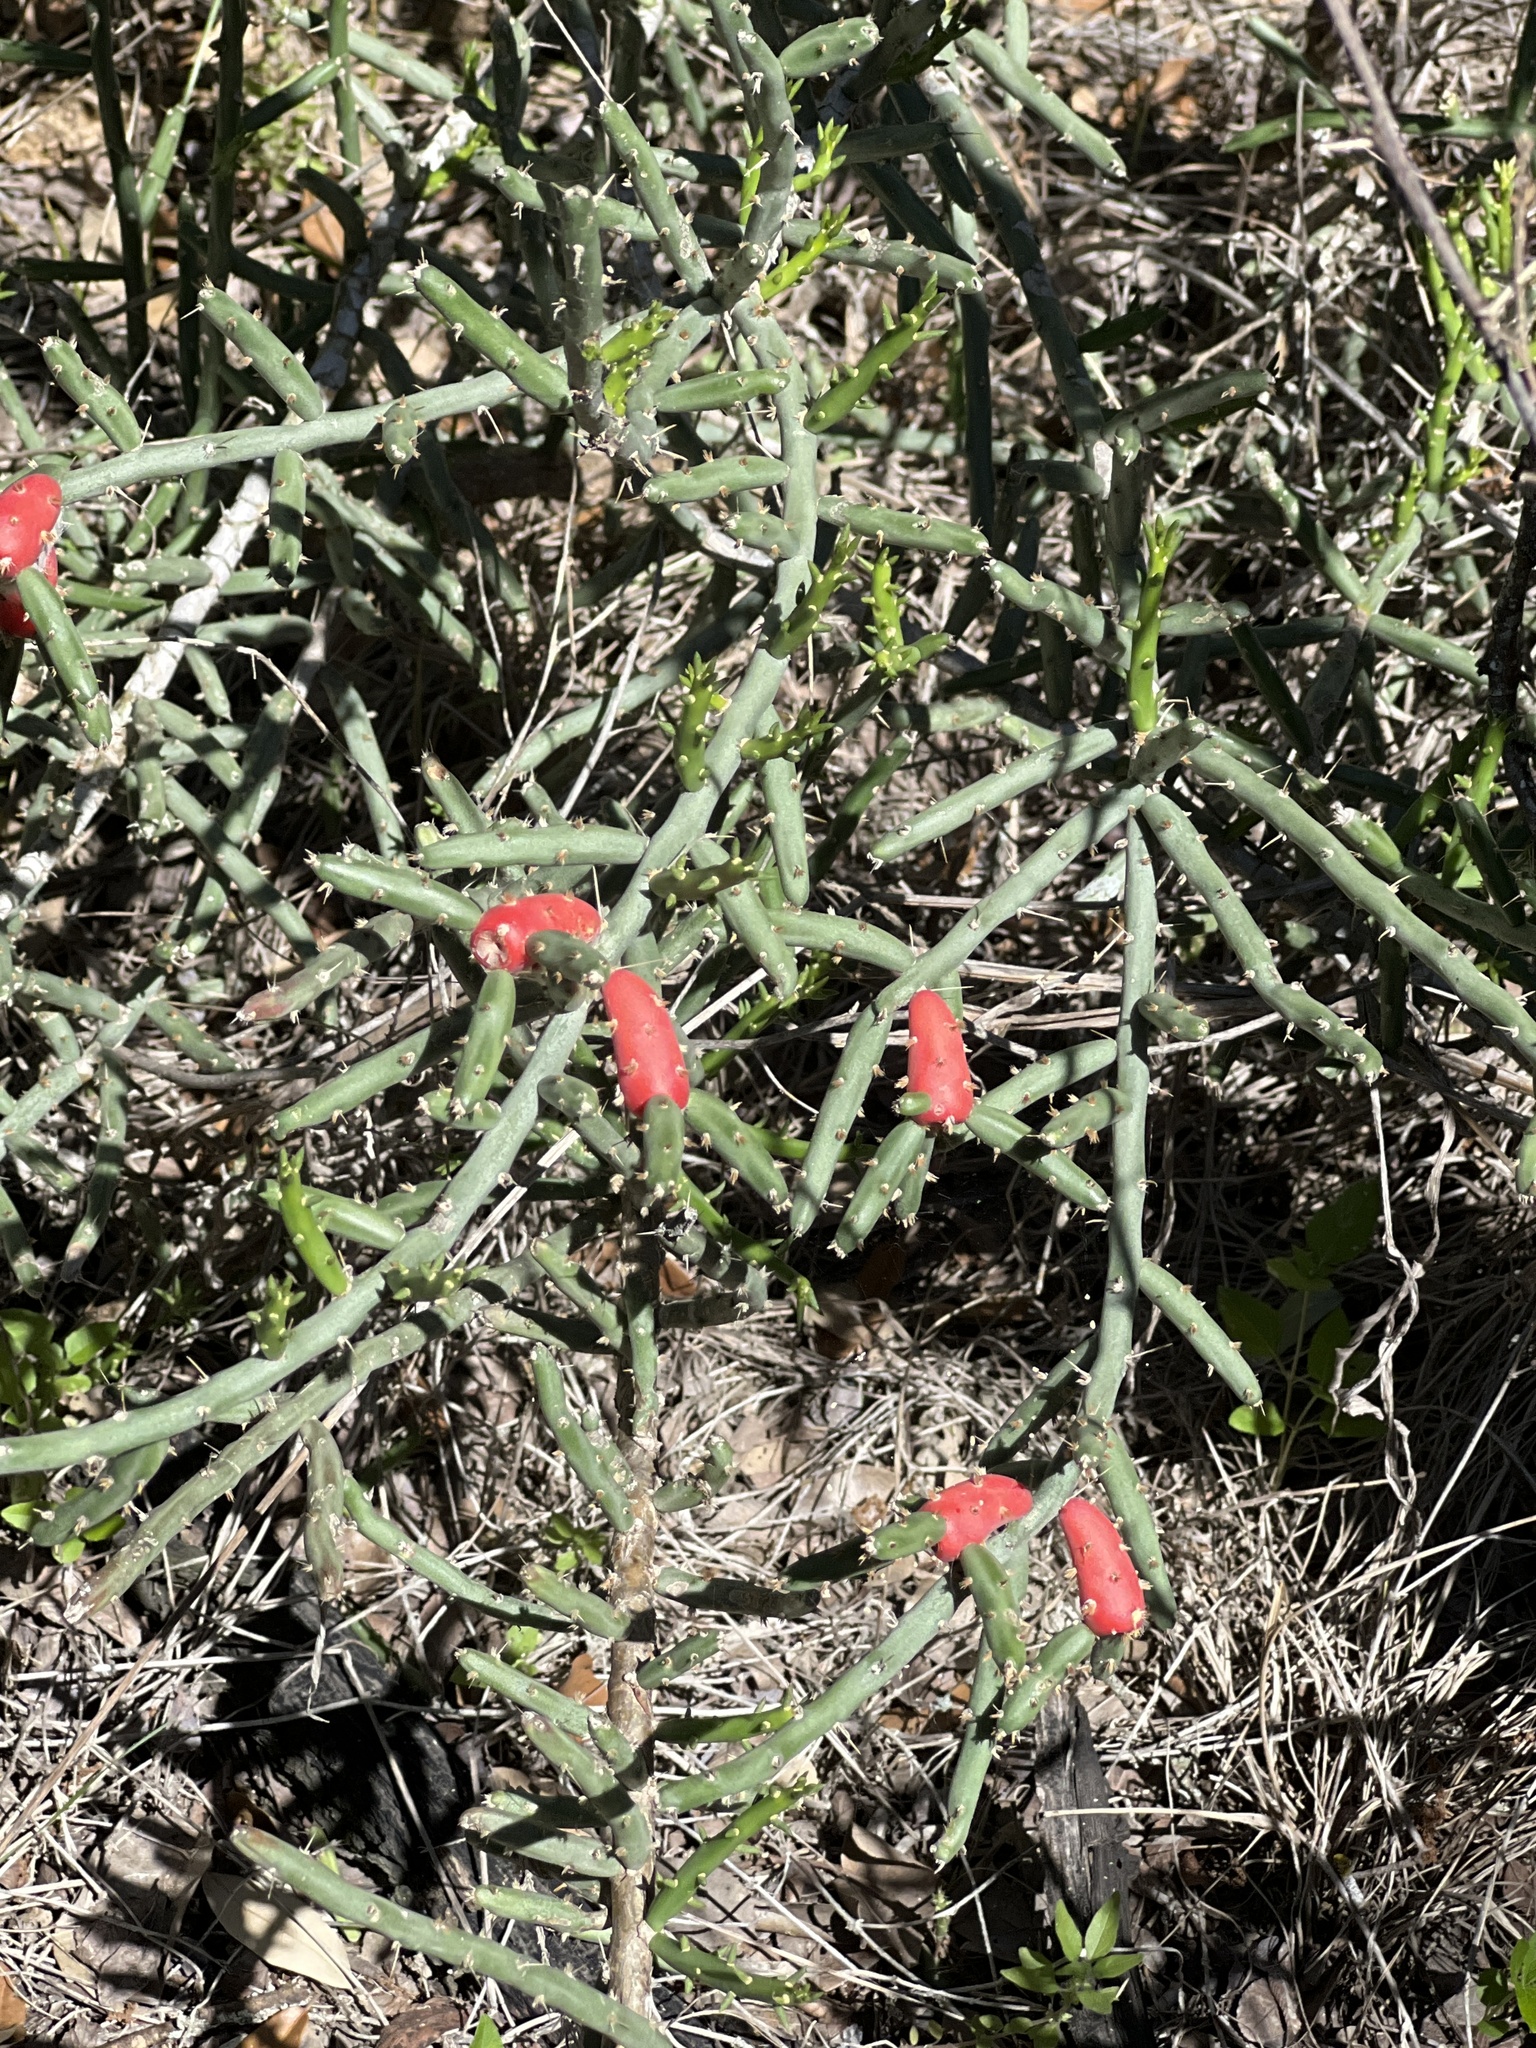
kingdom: Plantae
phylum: Tracheophyta
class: Magnoliopsida
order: Caryophyllales
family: Cactaceae
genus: Cylindropuntia
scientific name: Cylindropuntia leptocaulis
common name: Christmas cactus
